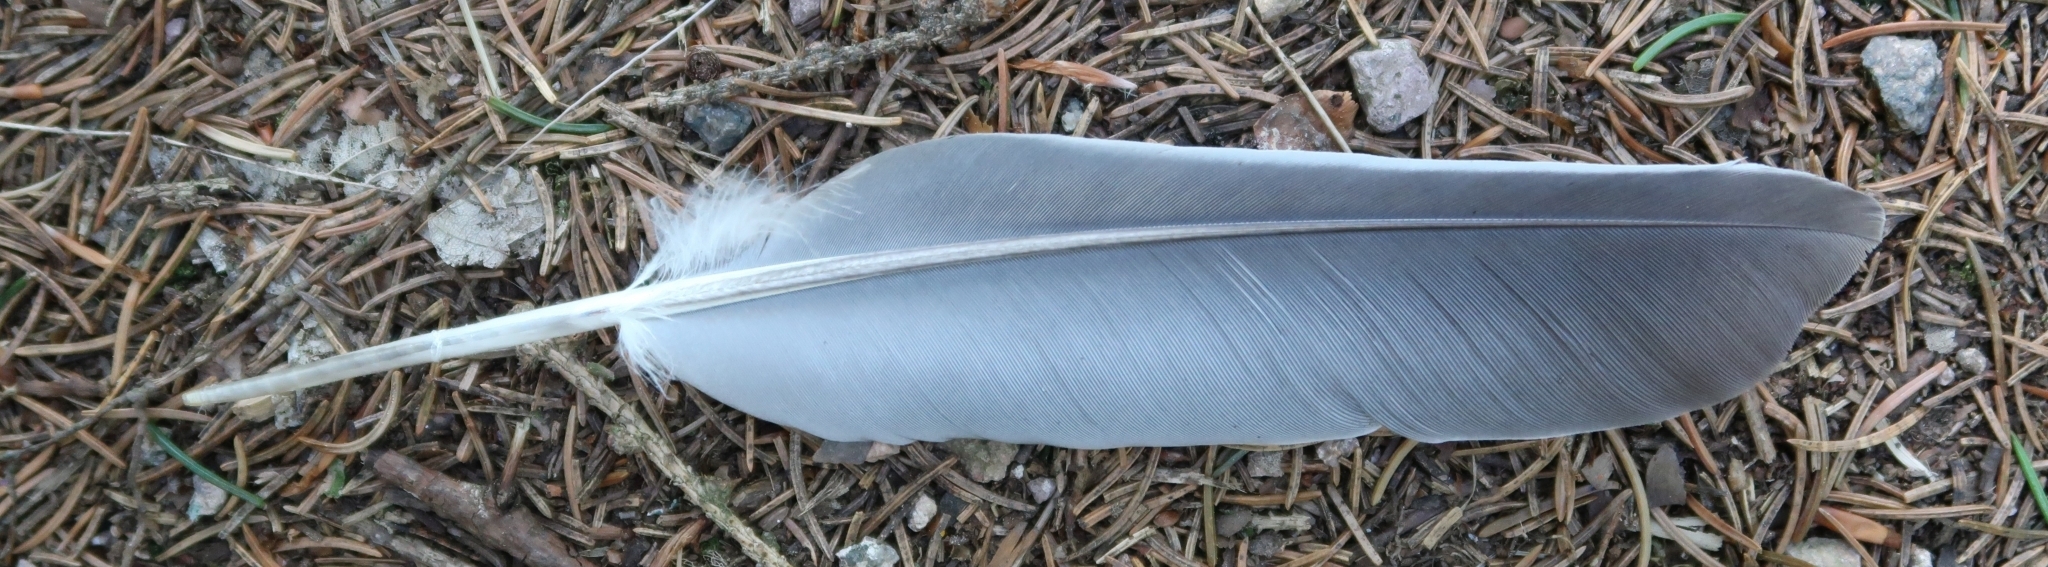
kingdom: Animalia
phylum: Chordata
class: Aves
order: Columbiformes
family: Columbidae
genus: Columba
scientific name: Columba palumbus
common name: Common wood pigeon
